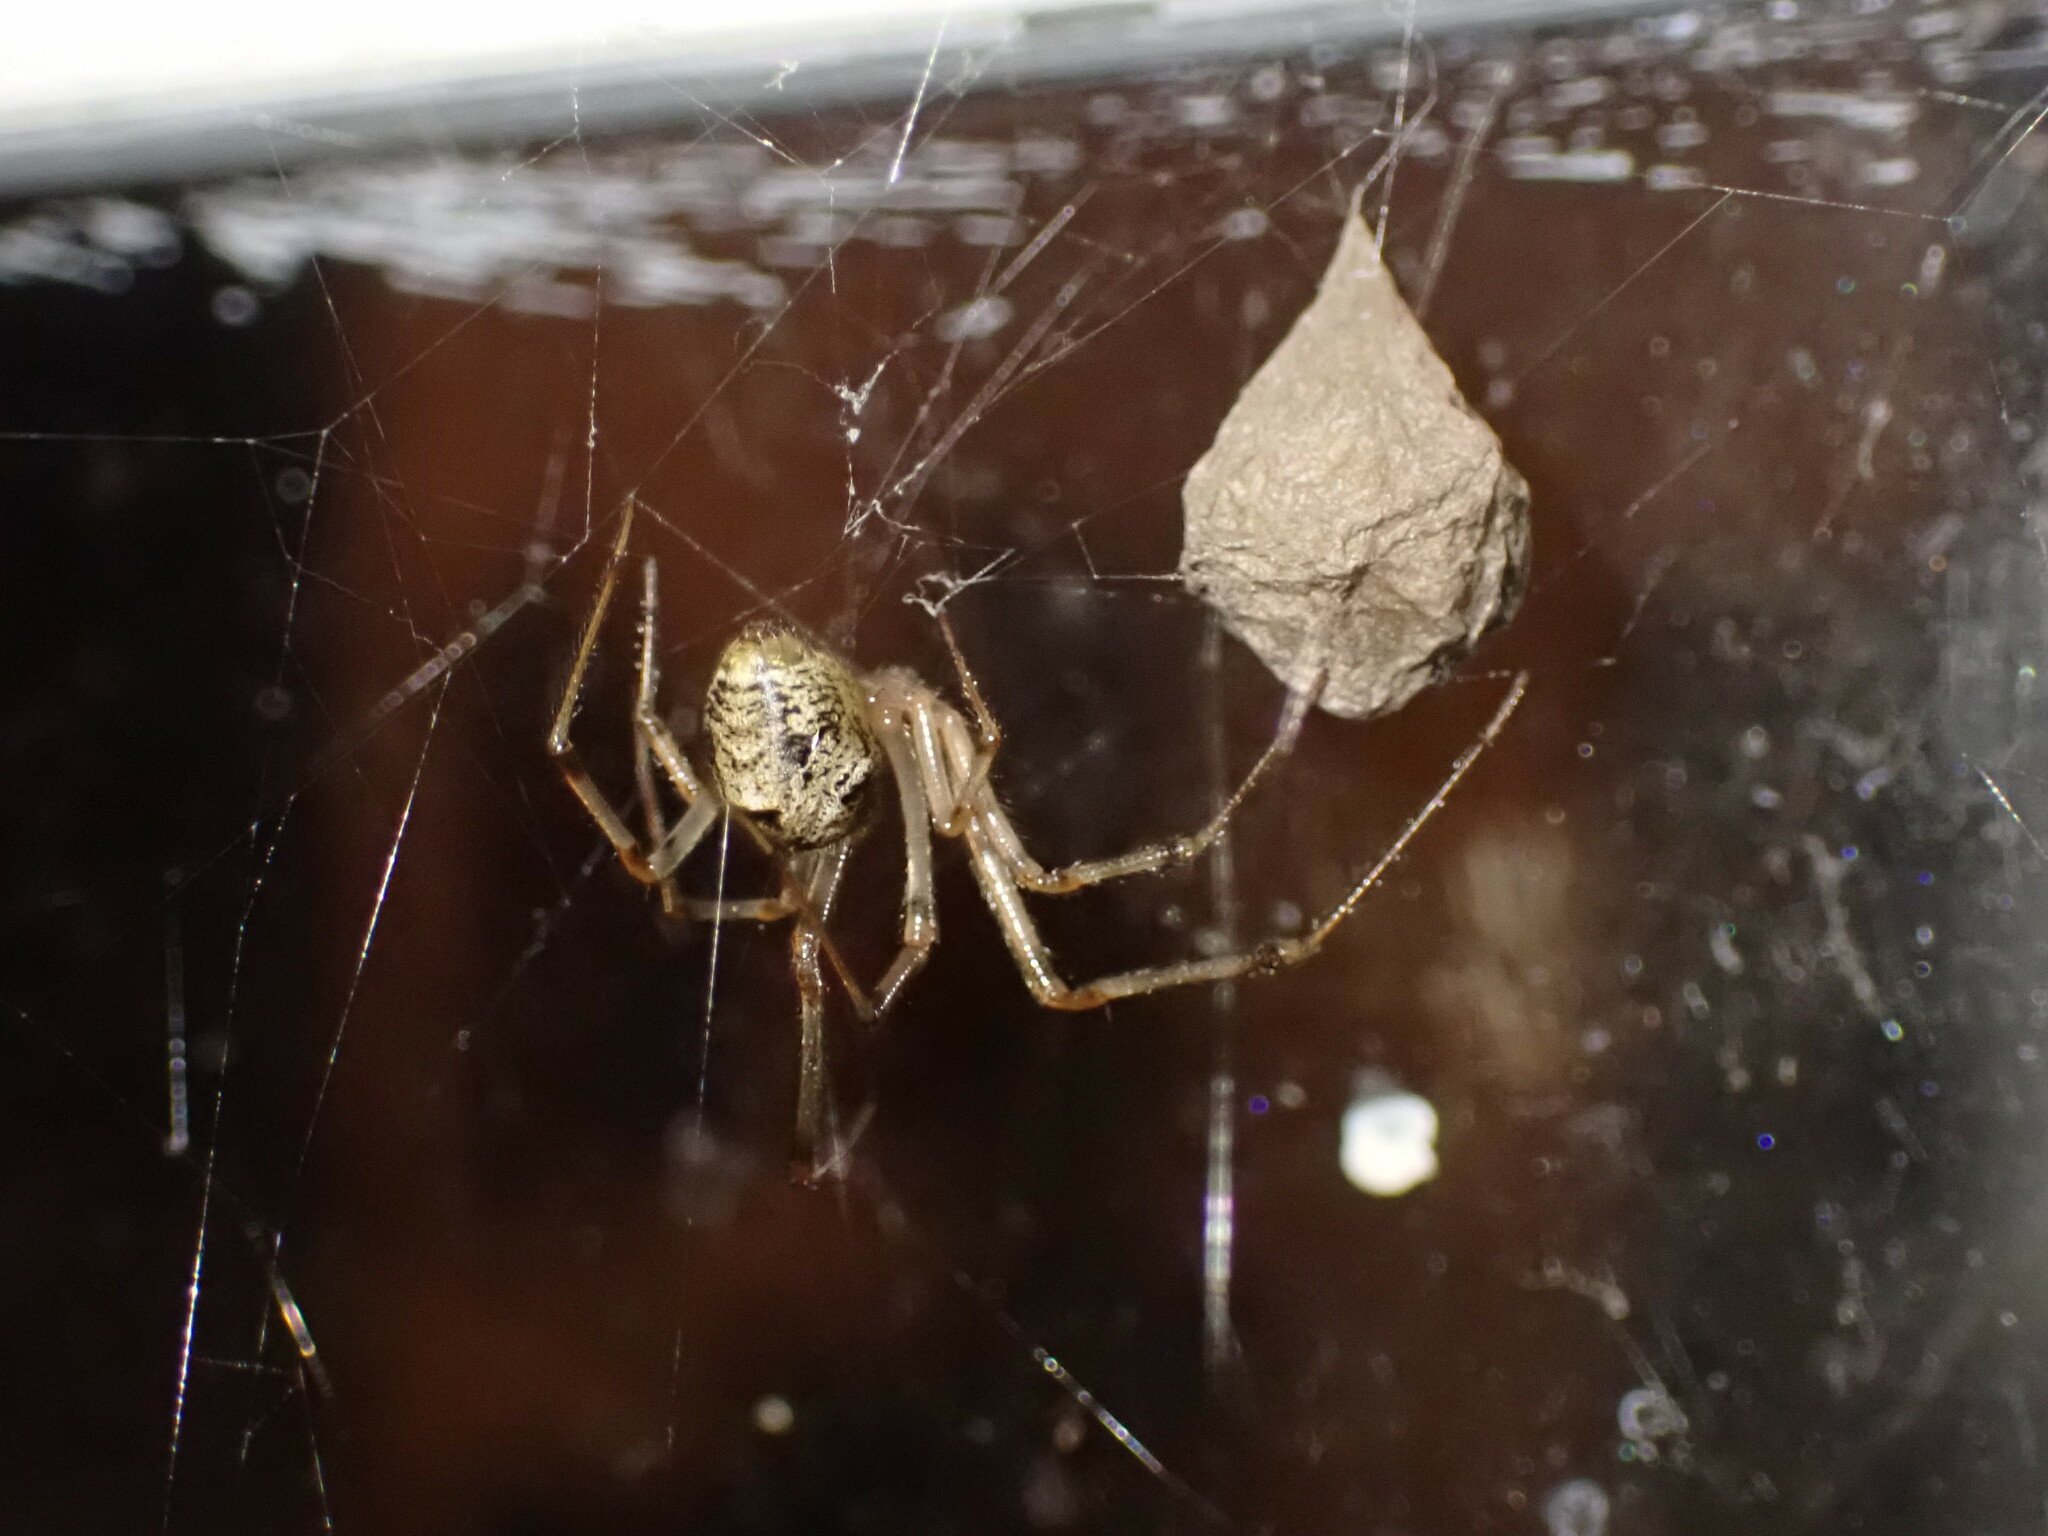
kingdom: Animalia
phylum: Arthropoda
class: Arachnida
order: Araneae
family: Theridiidae
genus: Parasteatoda
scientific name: Parasteatoda tepidariorum
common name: Common house spider
